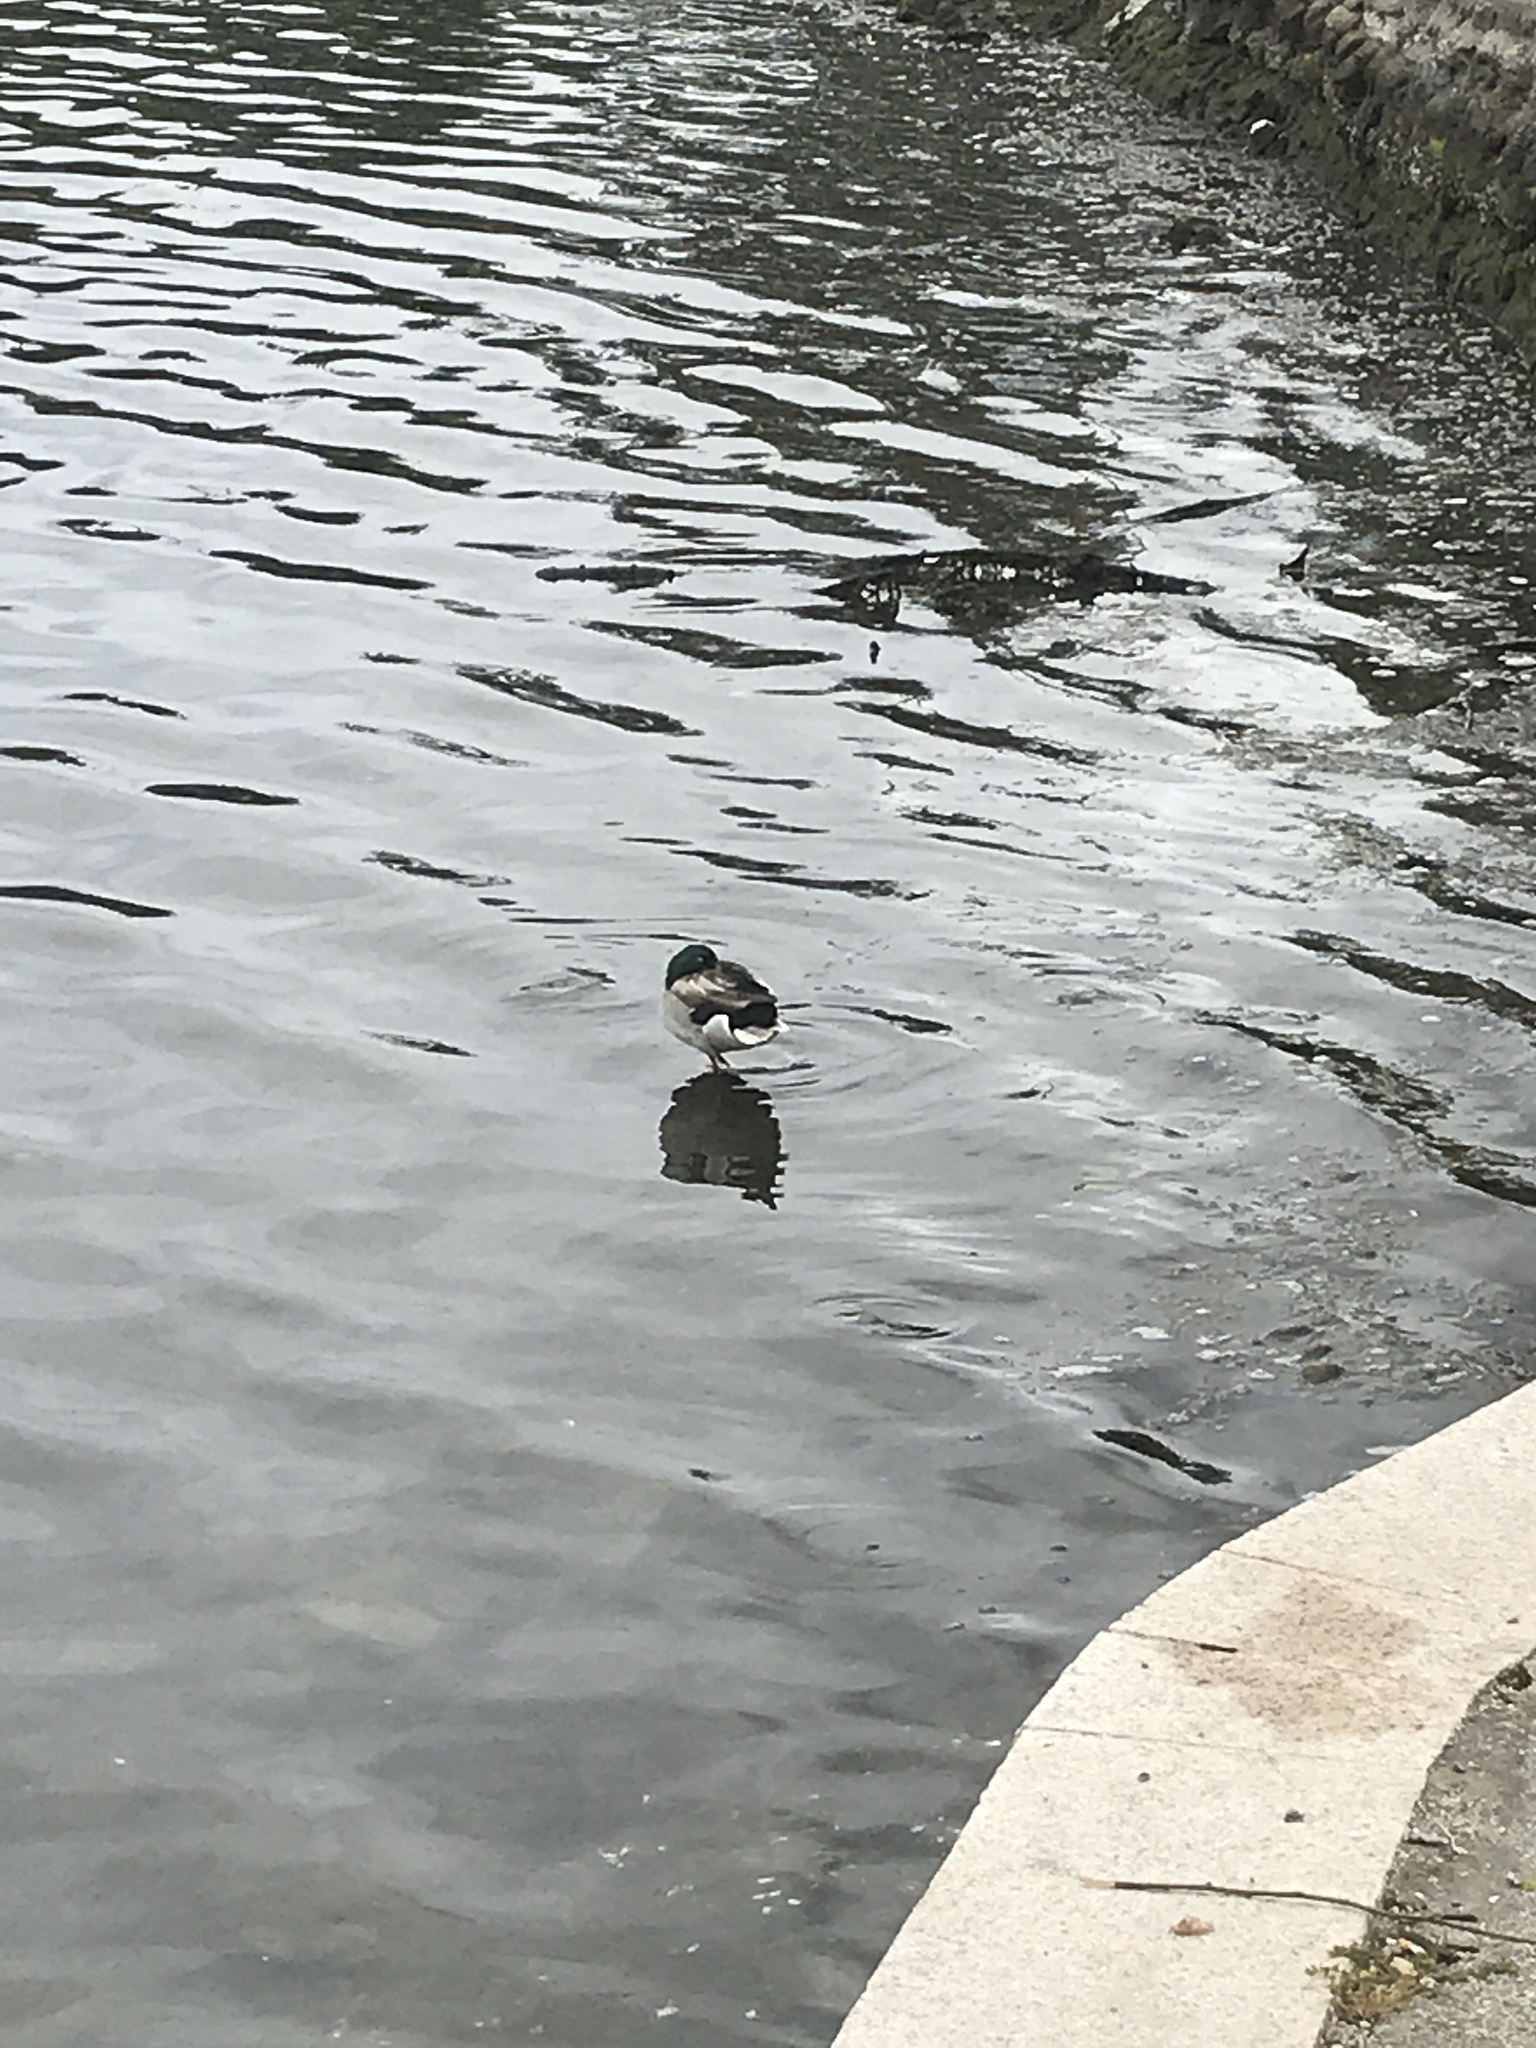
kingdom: Animalia
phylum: Chordata
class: Aves
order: Anseriformes
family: Anatidae
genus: Anas
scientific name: Anas platyrhynchos
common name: Mallard
